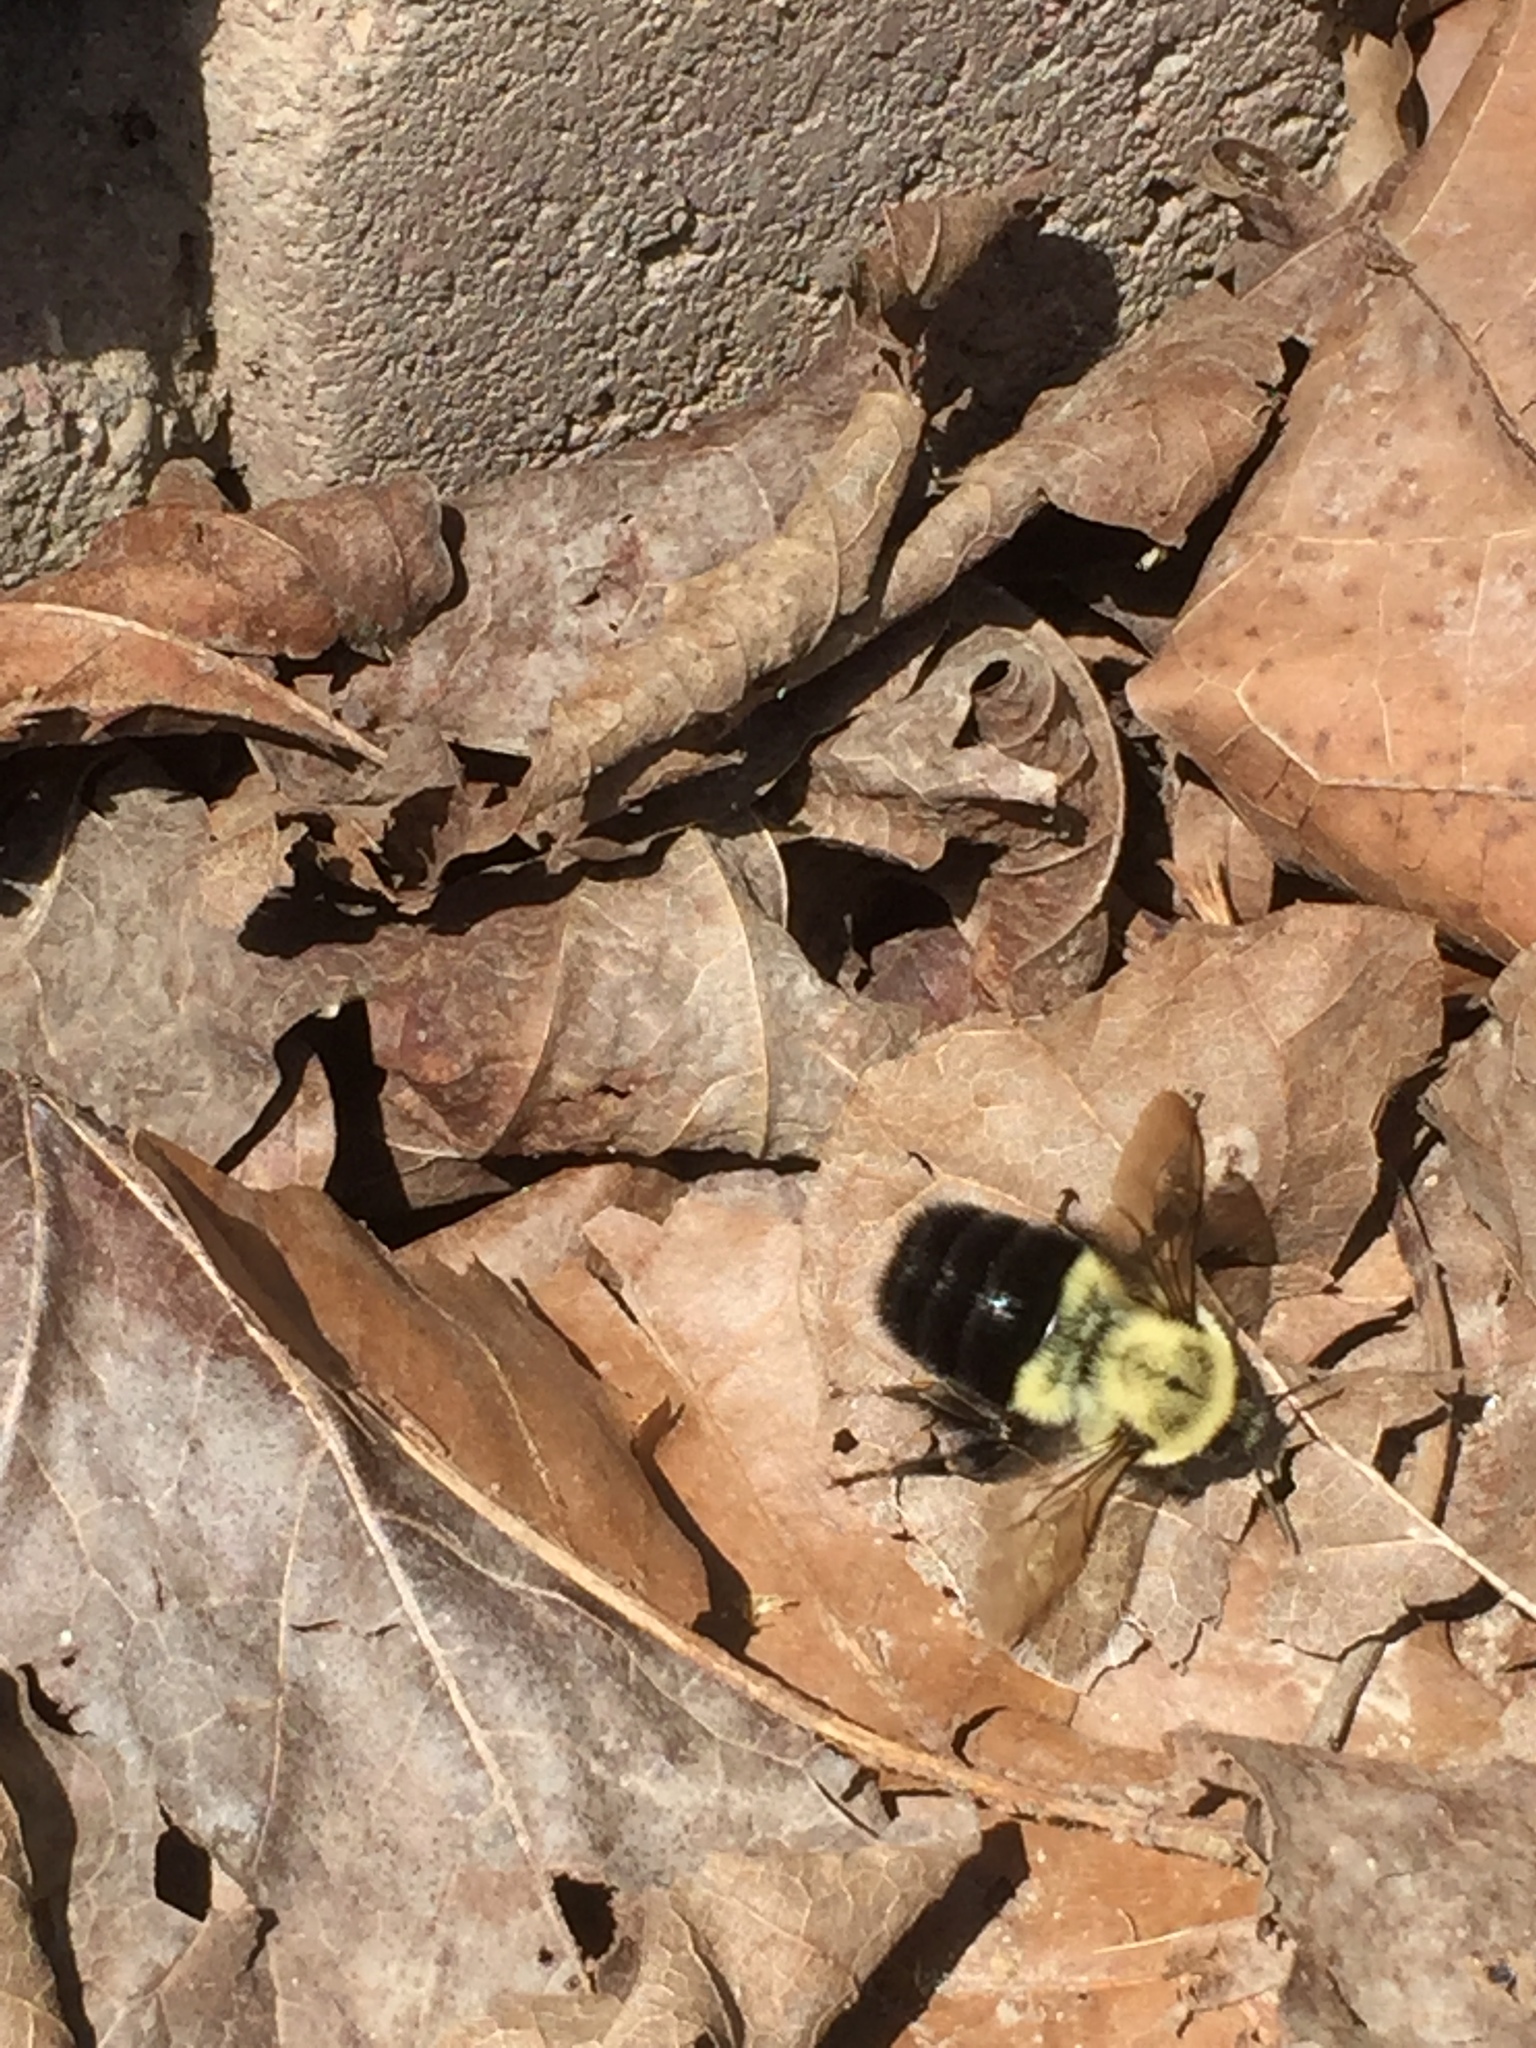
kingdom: Animalia
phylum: Arthropoda
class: Insecta
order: Hymenoptera
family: Apidae
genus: Bombus
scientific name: Bombus impatiens
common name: Common eastern bumble bee
